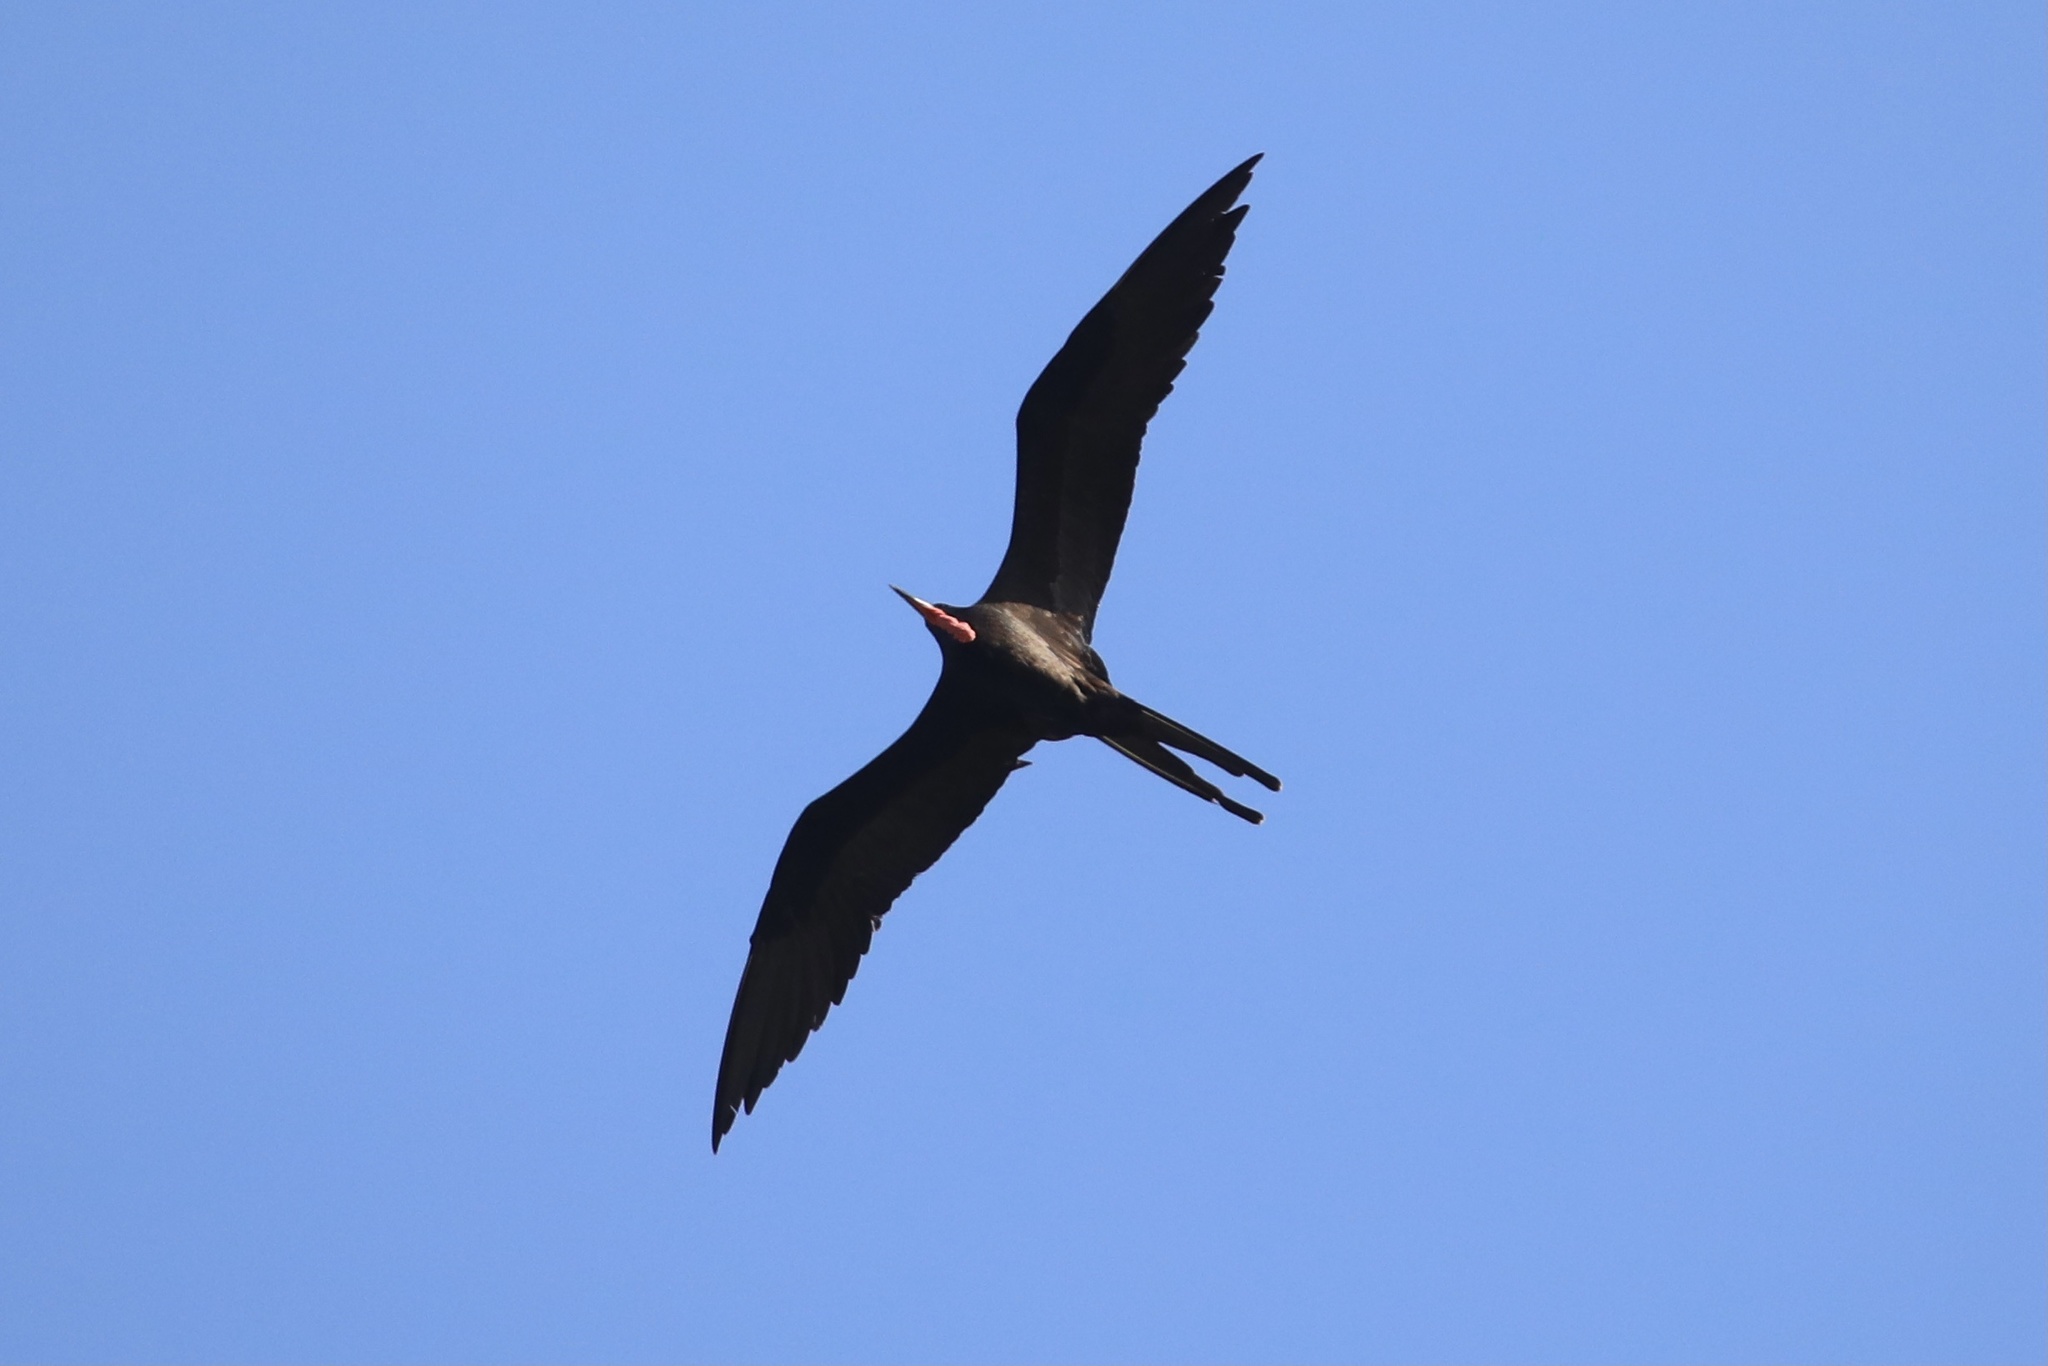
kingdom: Animalia
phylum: Chordata
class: Aves
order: Suliformes
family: Fregatidae
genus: Fregata
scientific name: Fregata magnificens
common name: Magnificent frigatebird
